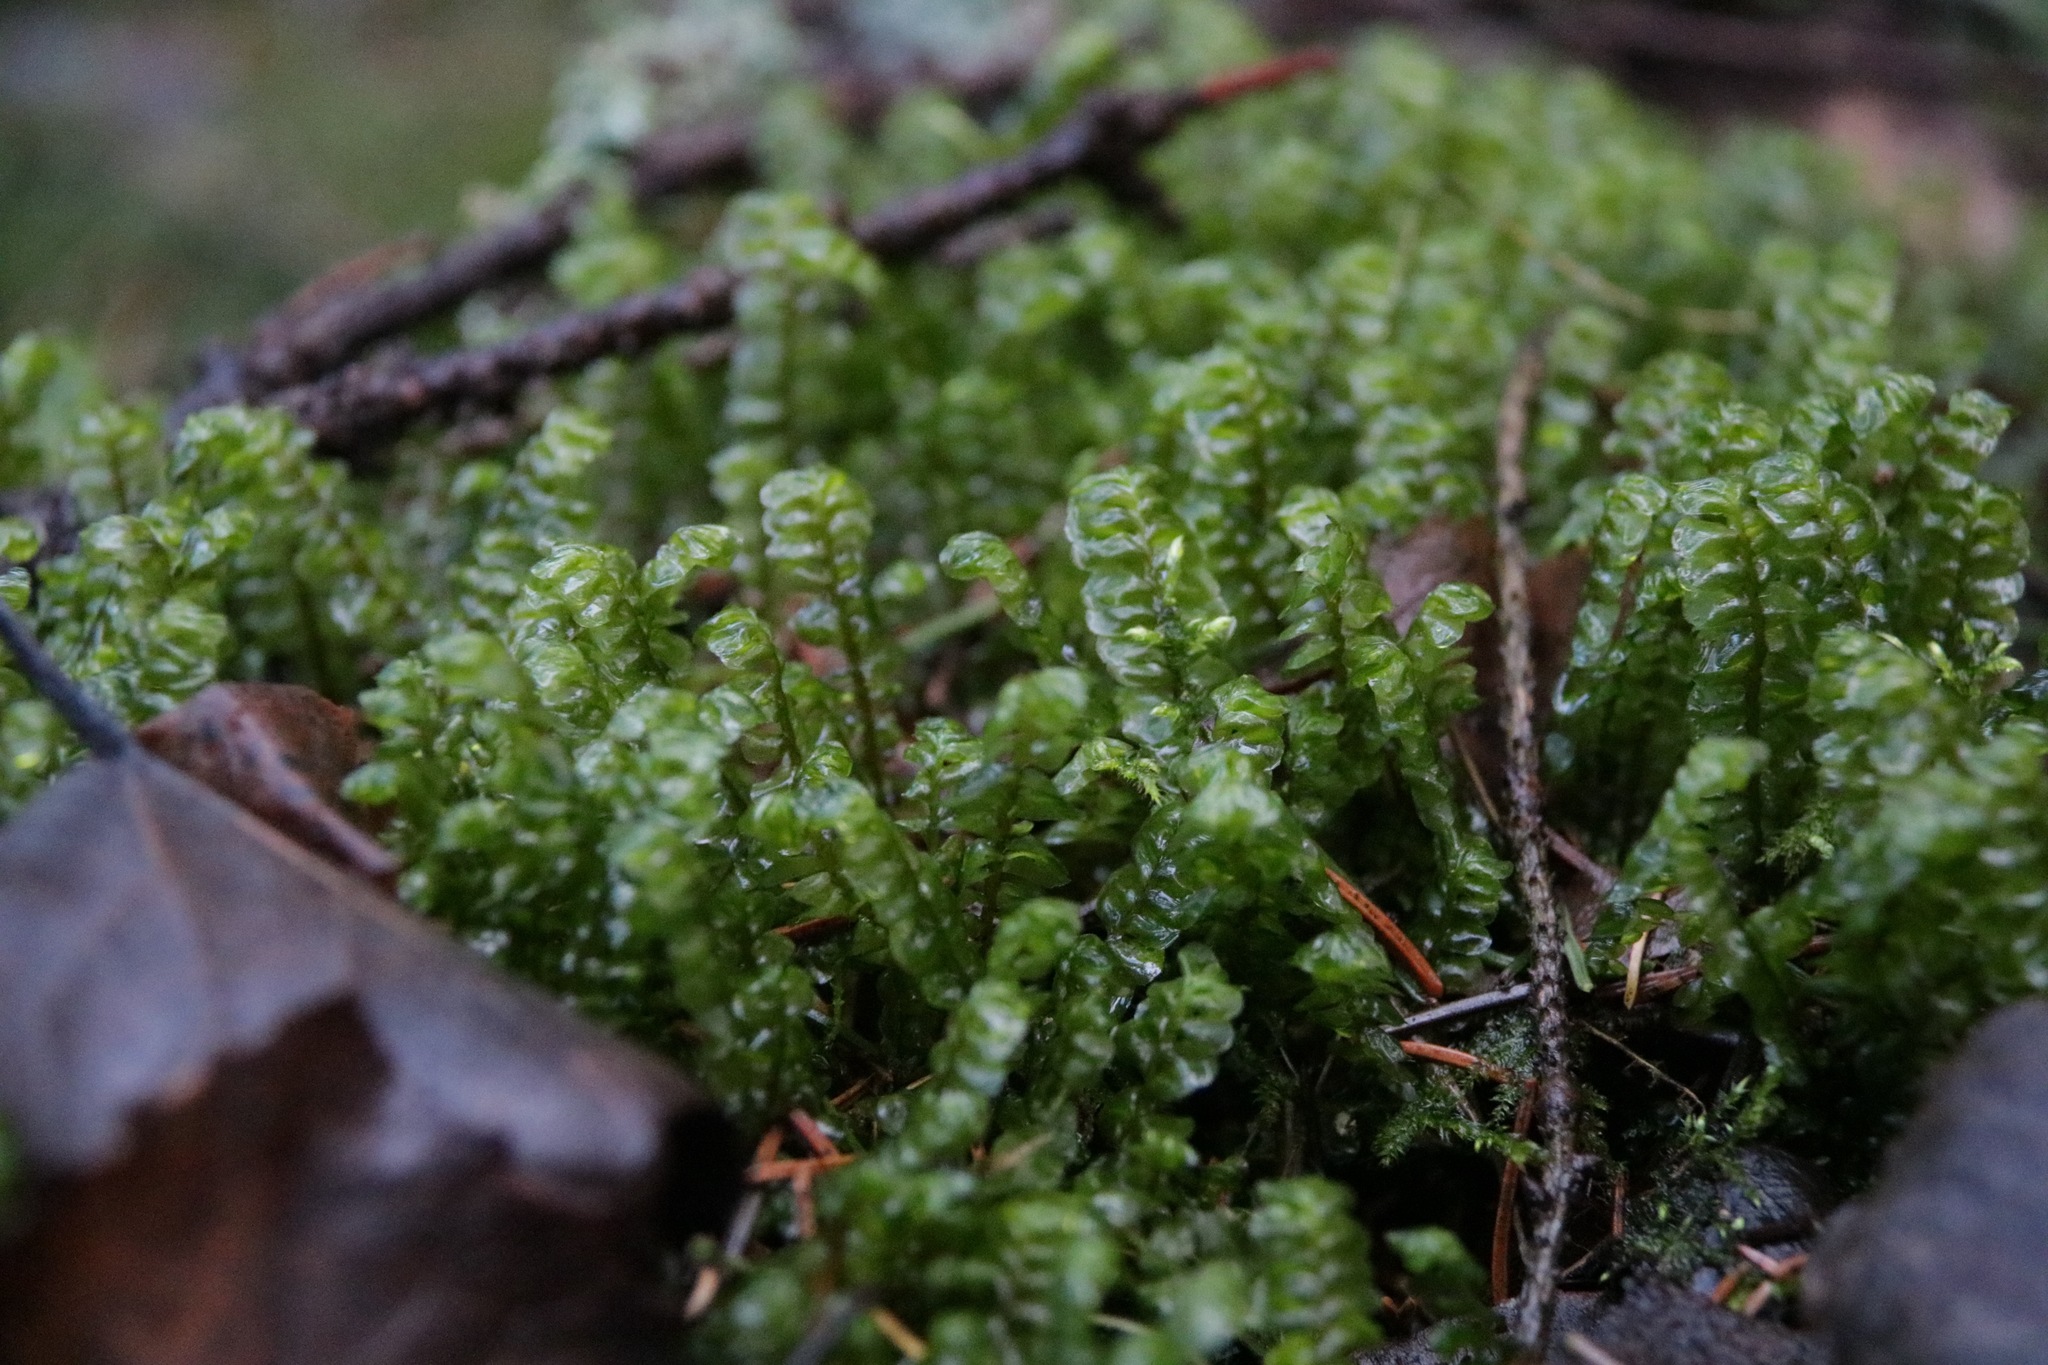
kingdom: Plantae
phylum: Marchantiophyta
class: Jungermanniopsida
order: Jungermanniales
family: Plagiochilaceae
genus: Plagiochila
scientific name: Plagiochila asplenioides
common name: Greater featherwort
